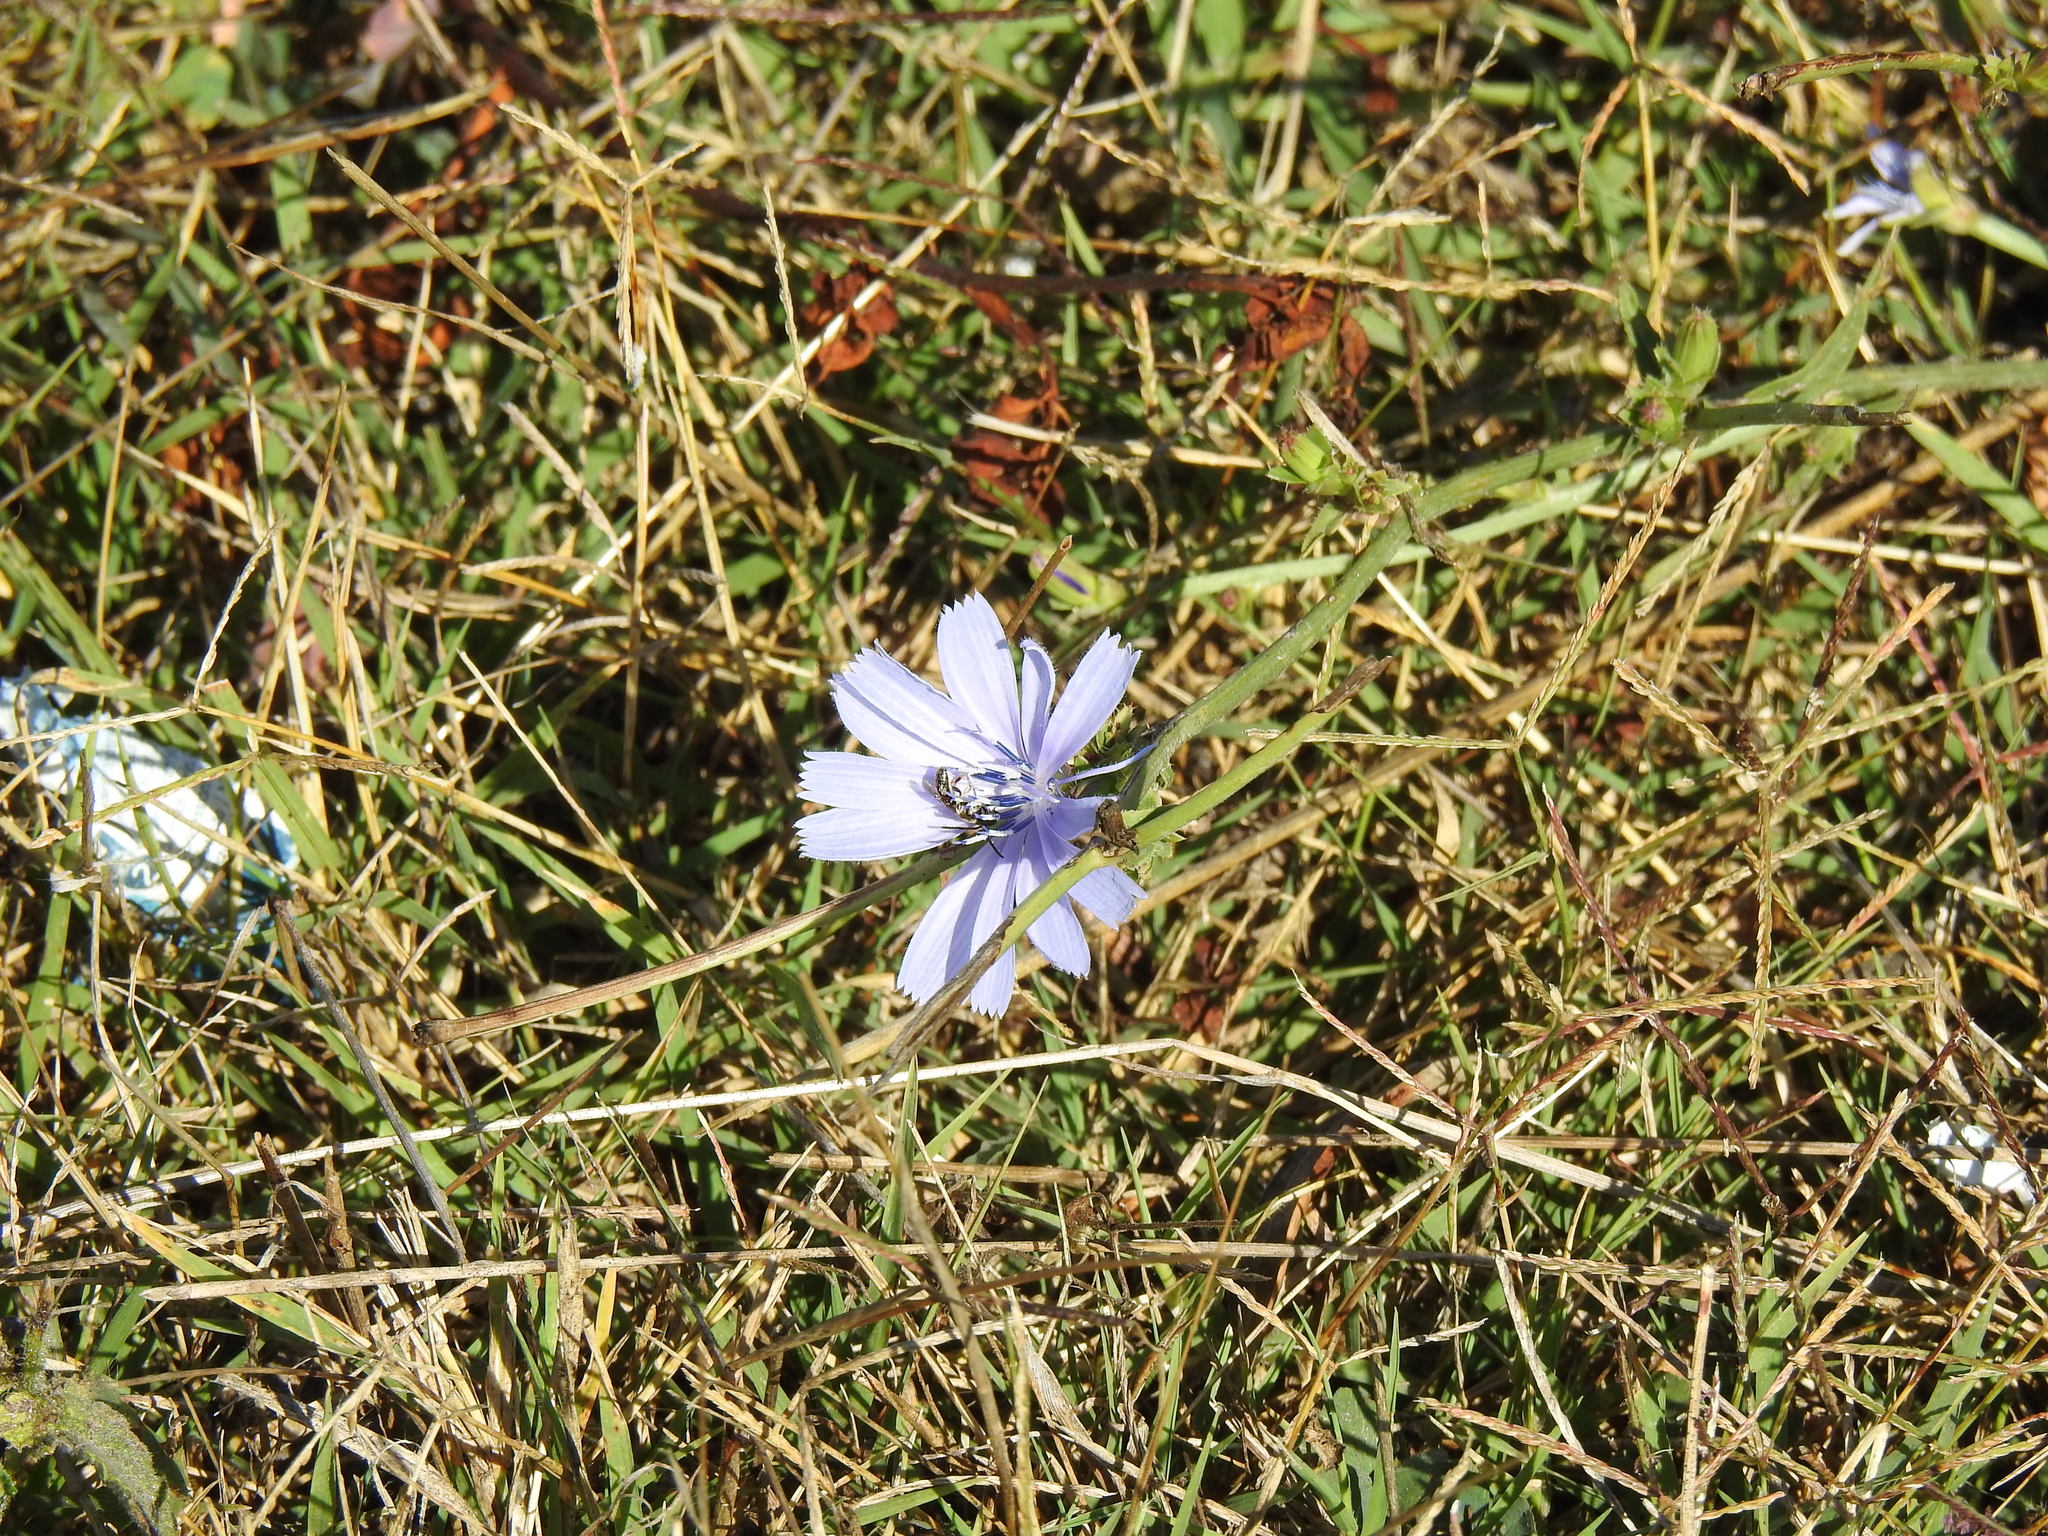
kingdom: Plantae
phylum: Tracheophyta
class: Magnoliopsida
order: Asterales
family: Asteraceae
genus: Cichorium
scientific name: Cichorium intybus
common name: Chicory
